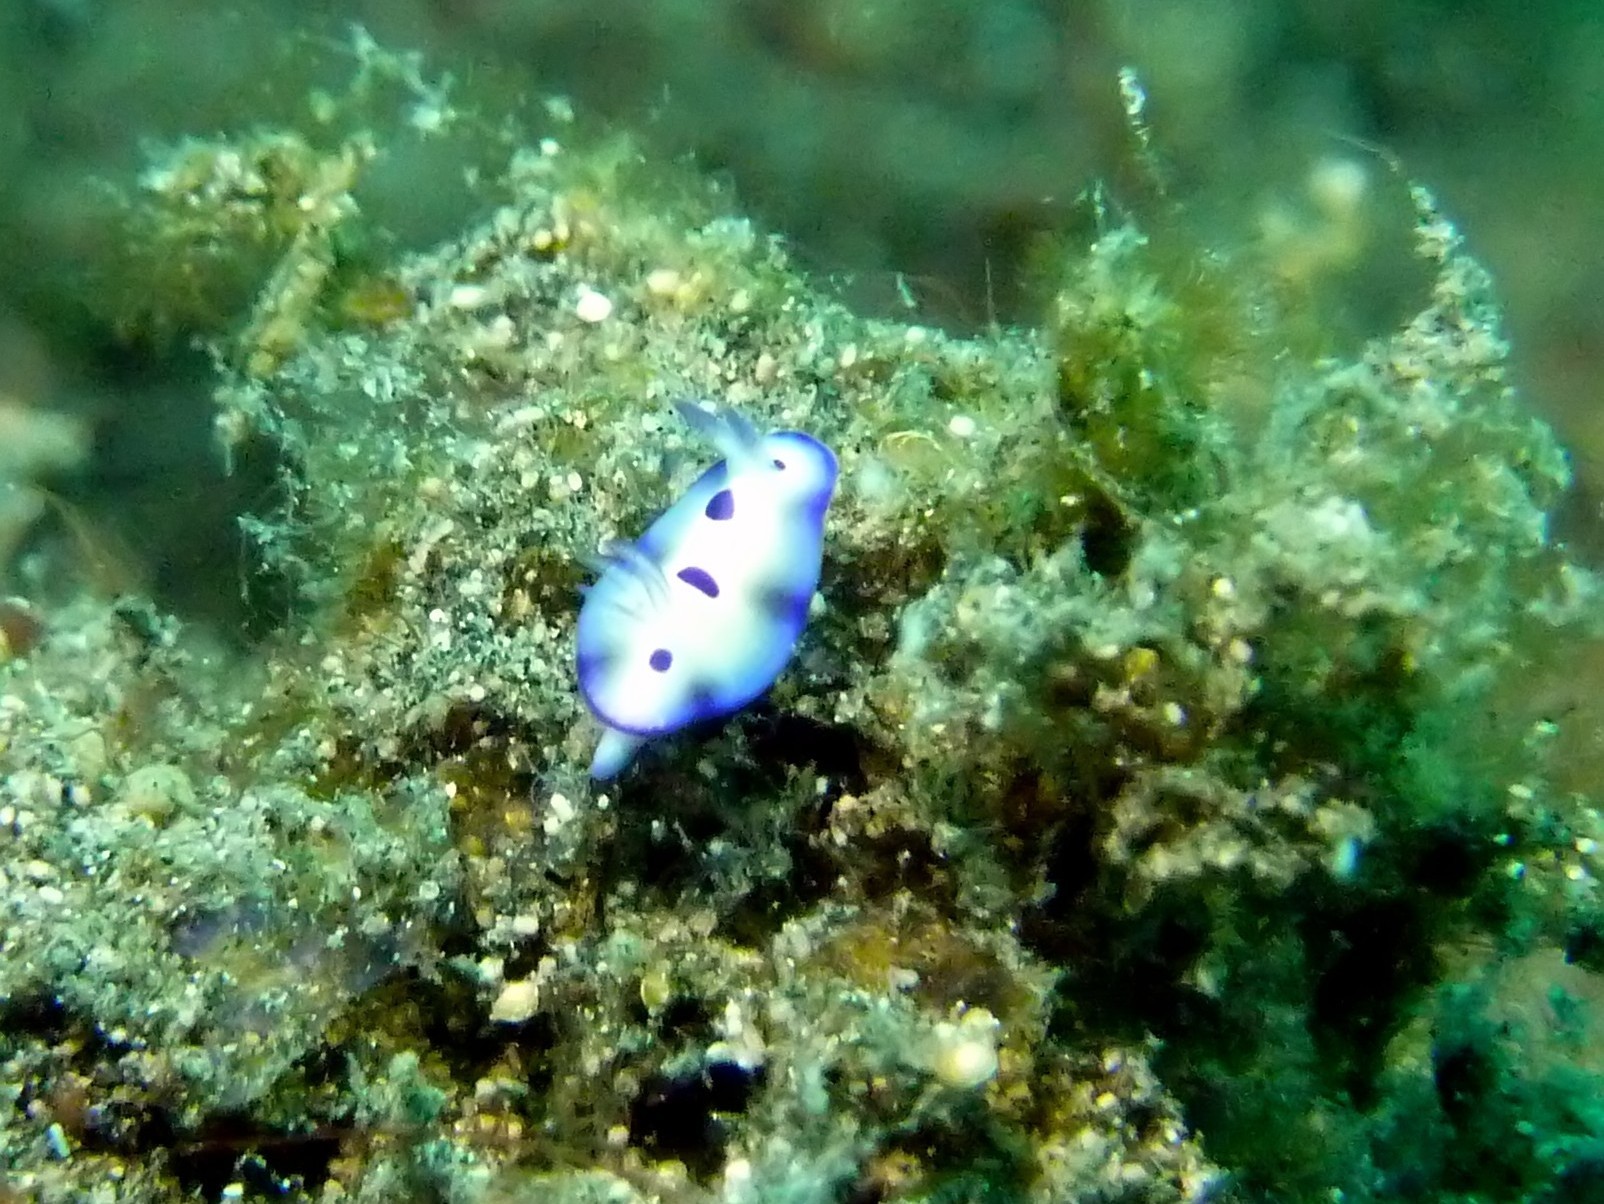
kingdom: Animalia
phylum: Mollusca
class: Gastropoda
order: Nudibranchia
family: Chromodorididae
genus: Hypselodoris
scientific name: Hypselodoris tryoni
